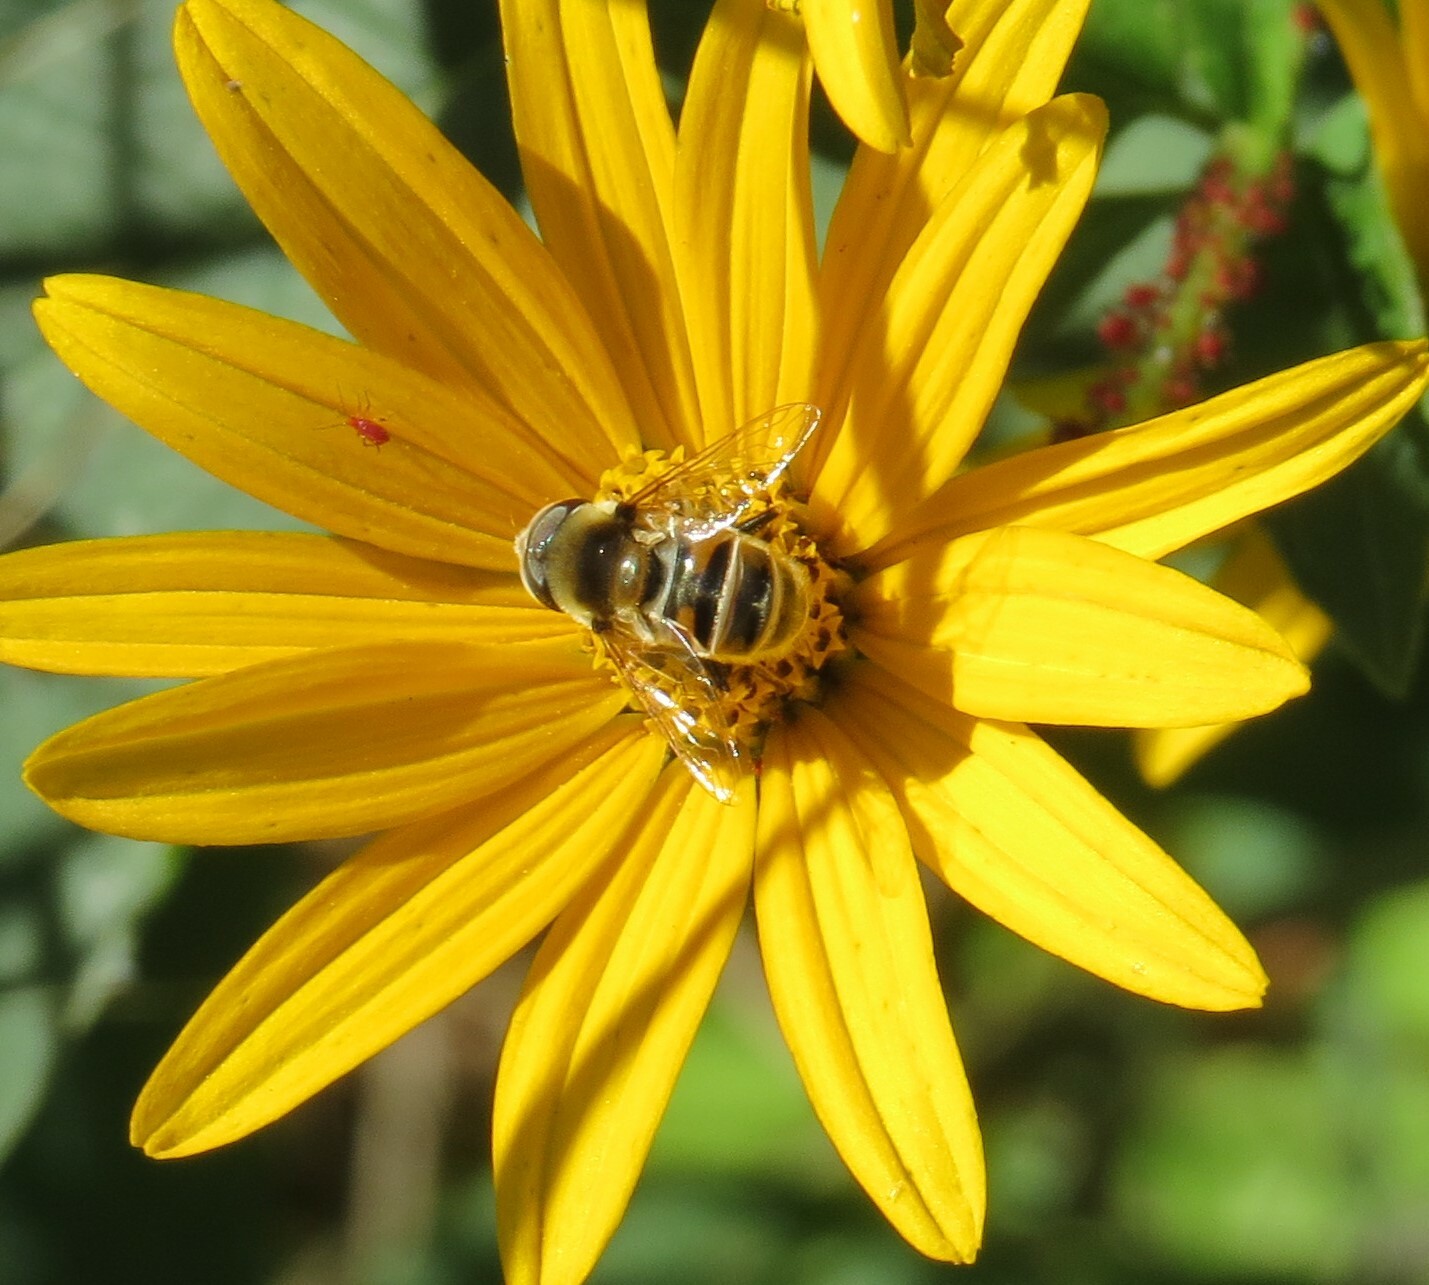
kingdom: Animalia
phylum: Arthropoda
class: Insecta
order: Diptera
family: Syrphidae
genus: Eristalis
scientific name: Eristalis stipator
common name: Yellow-shouldered drone fly
